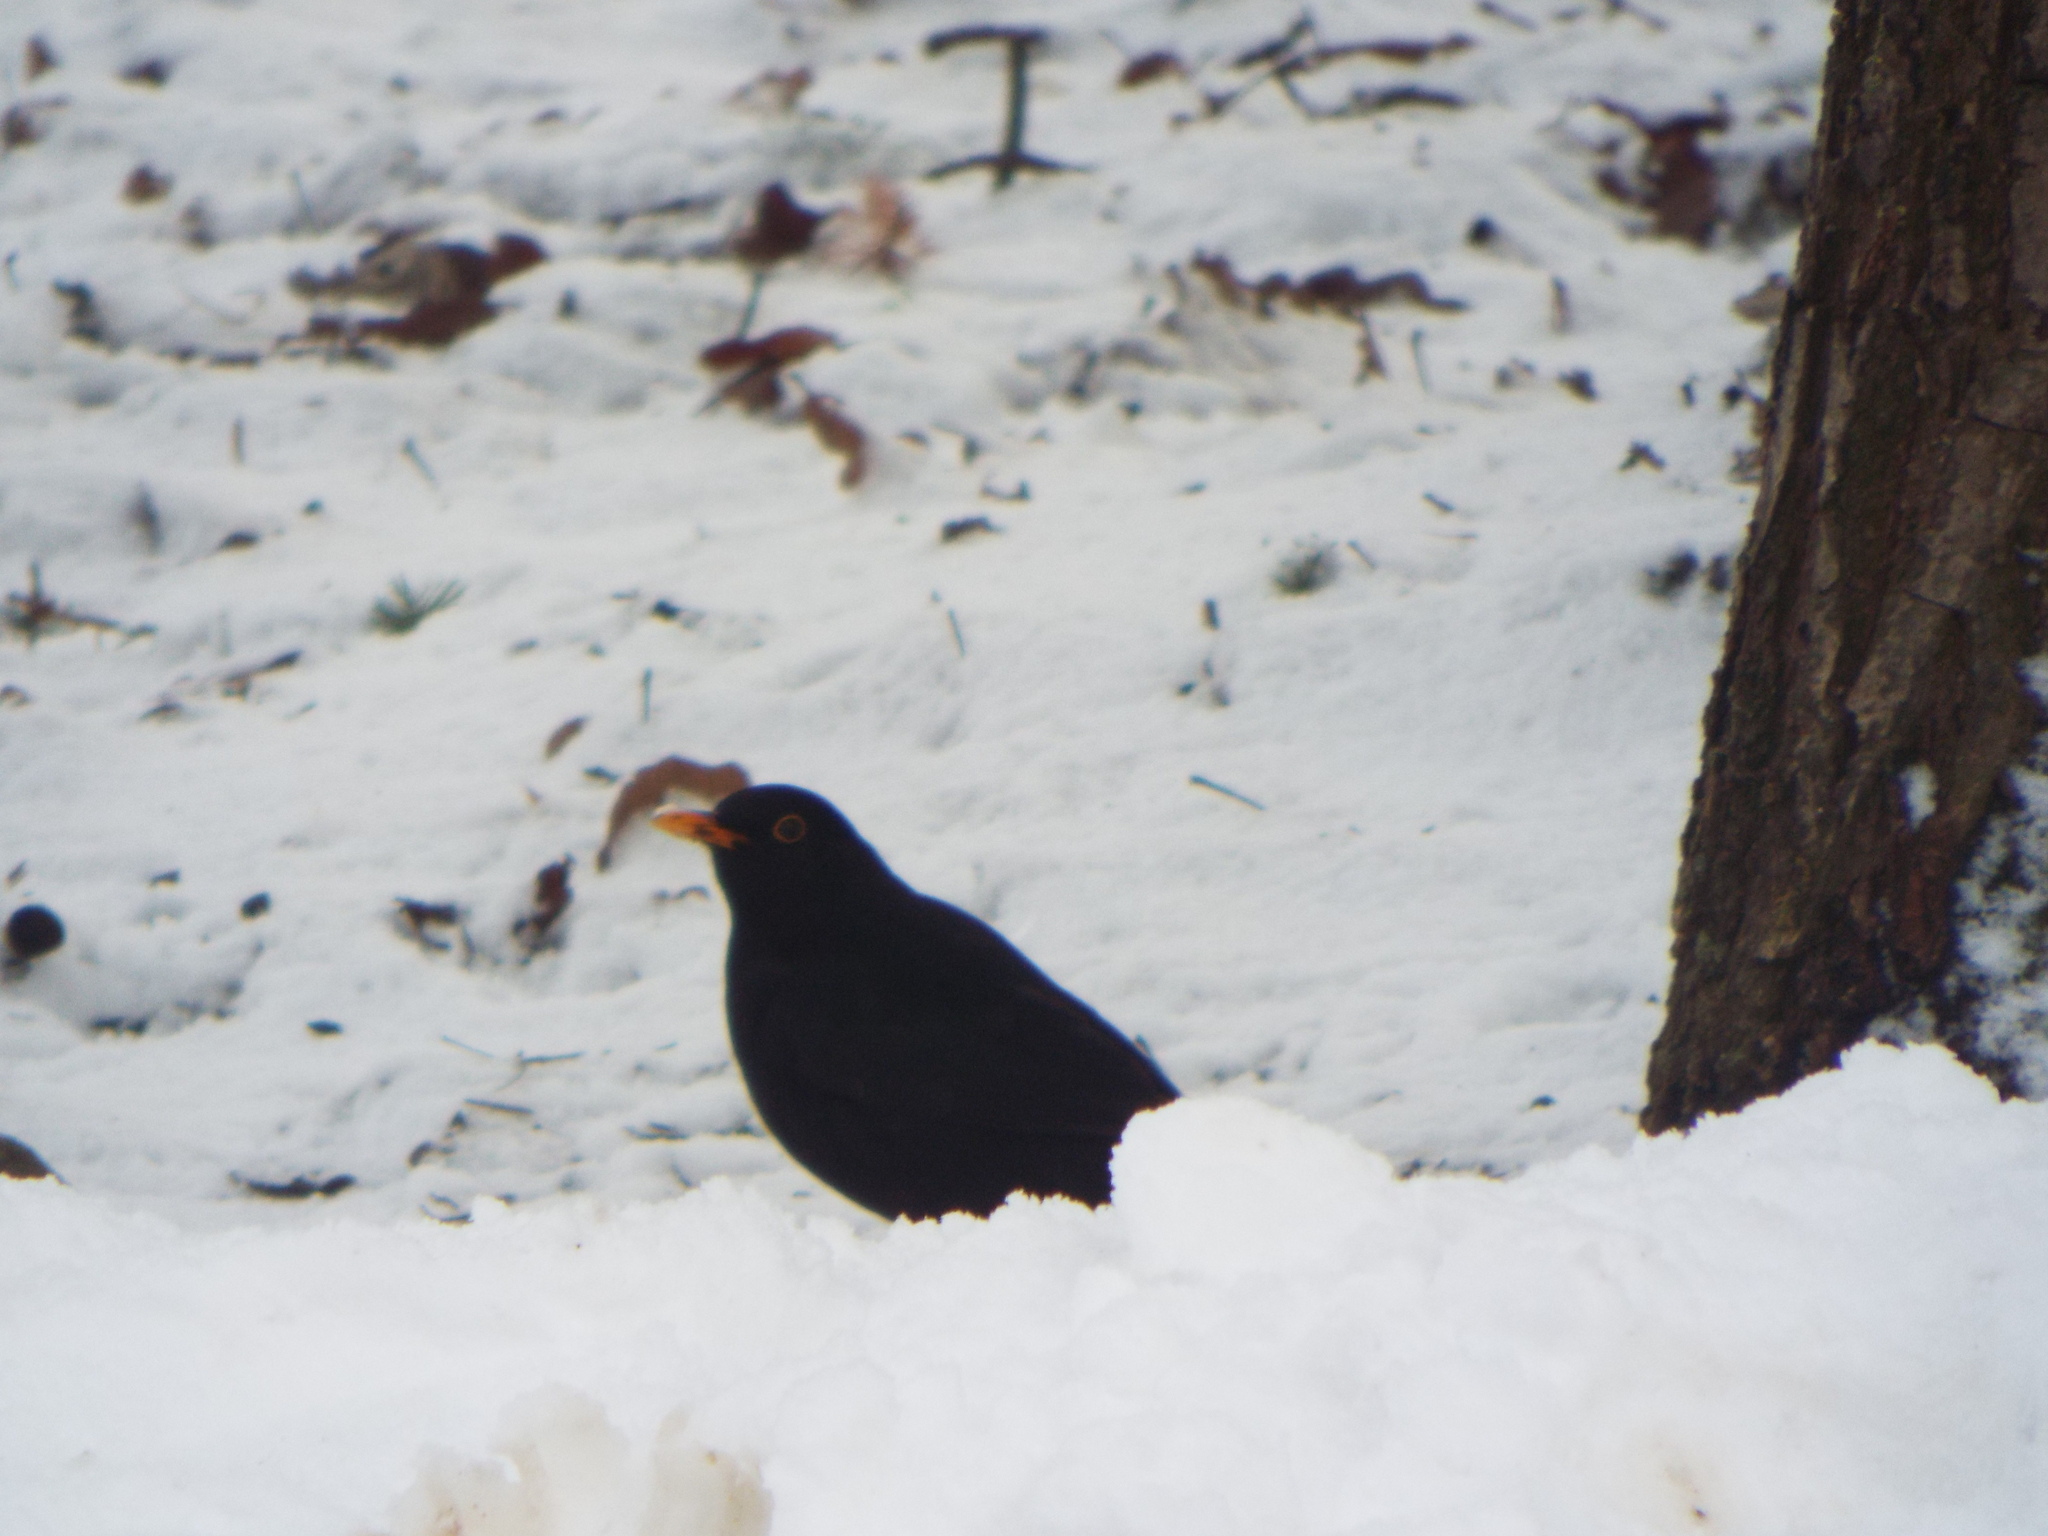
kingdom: Animalia
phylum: Chordata
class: Aves
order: Passeriformes
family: Turdidae
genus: Turdus
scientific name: Turdus merula
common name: Common blackbird
